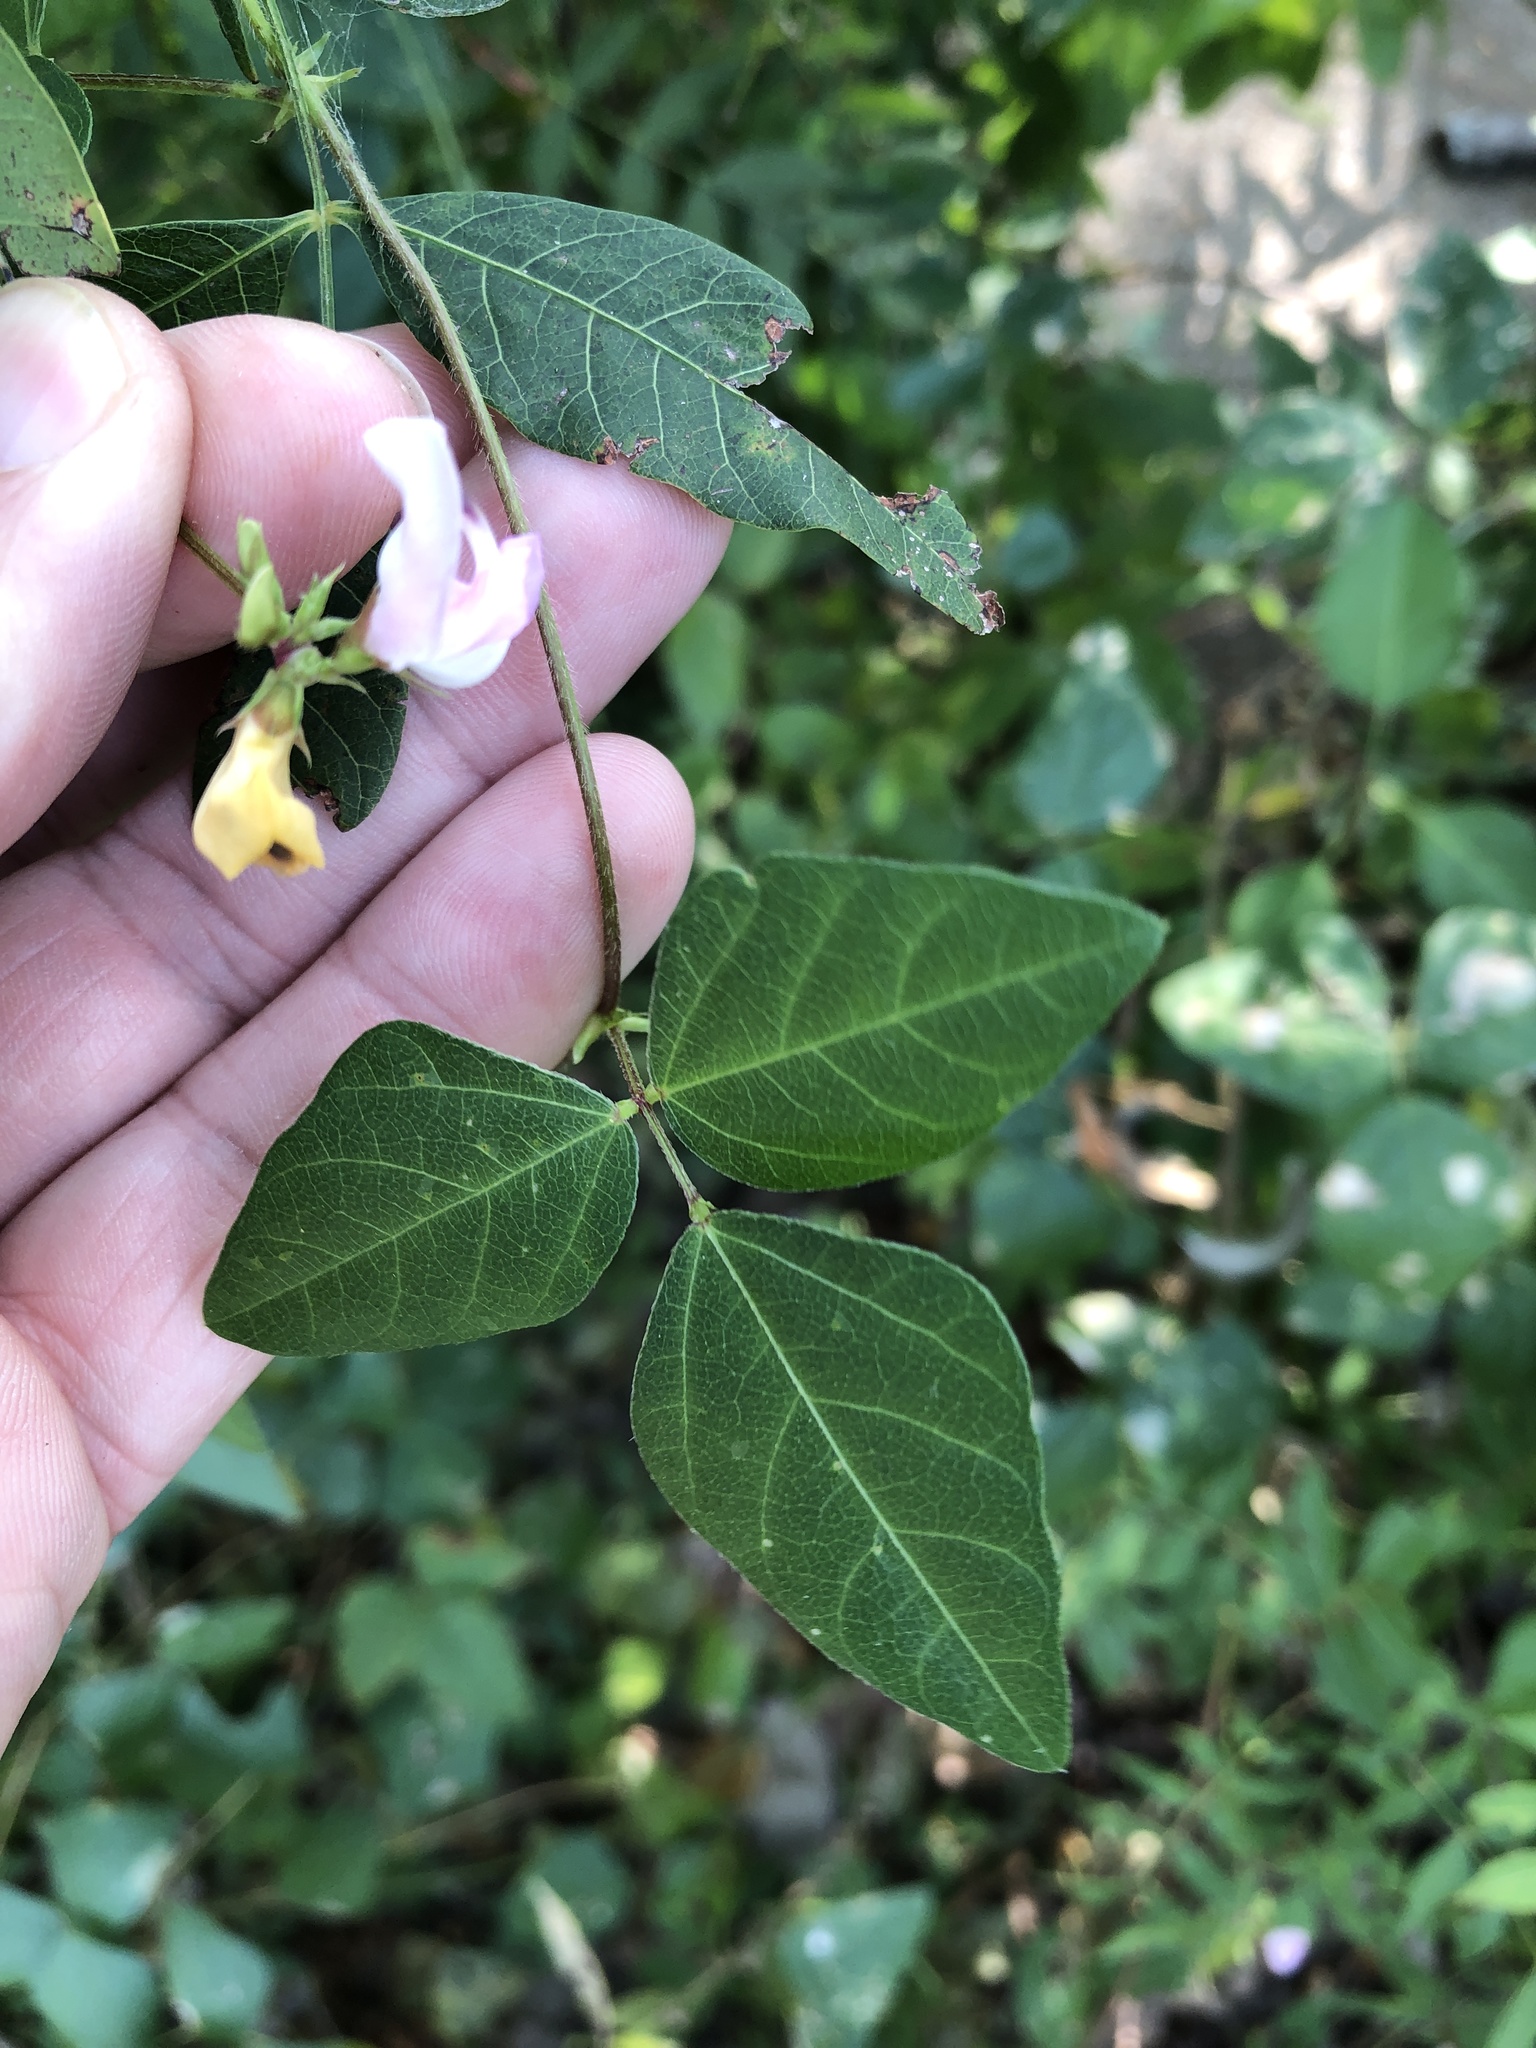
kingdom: Plantae
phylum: Tracheophyta
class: Magnoliopsida
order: Fabales
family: Fabaceae
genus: Strophostyles
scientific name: Strophostyles helvola
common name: Trailing wild bean
